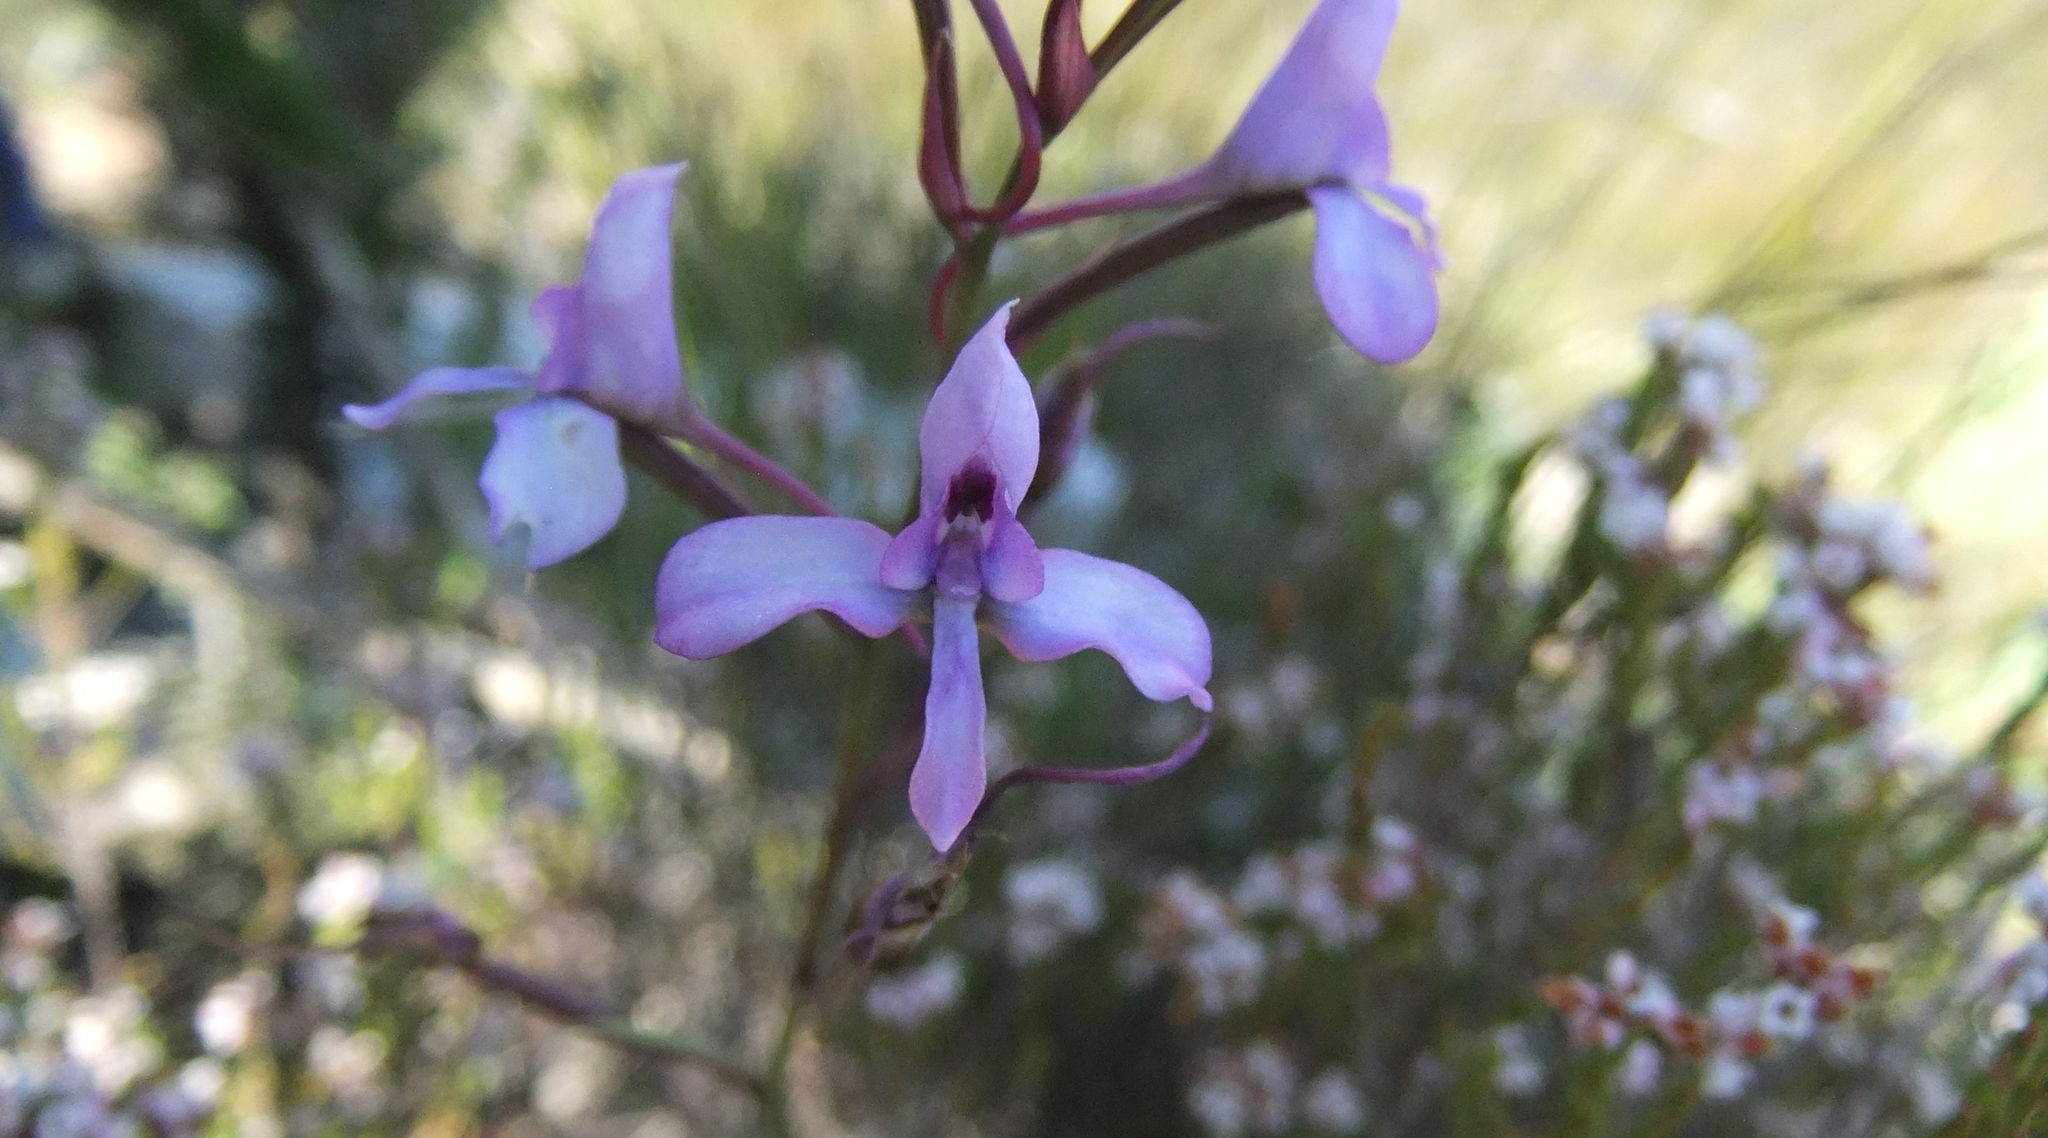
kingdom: Plantae
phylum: Tracheophyta
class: Liliopsida
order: Asparagales
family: Orchidaceae
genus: Disa
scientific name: Disa arida
